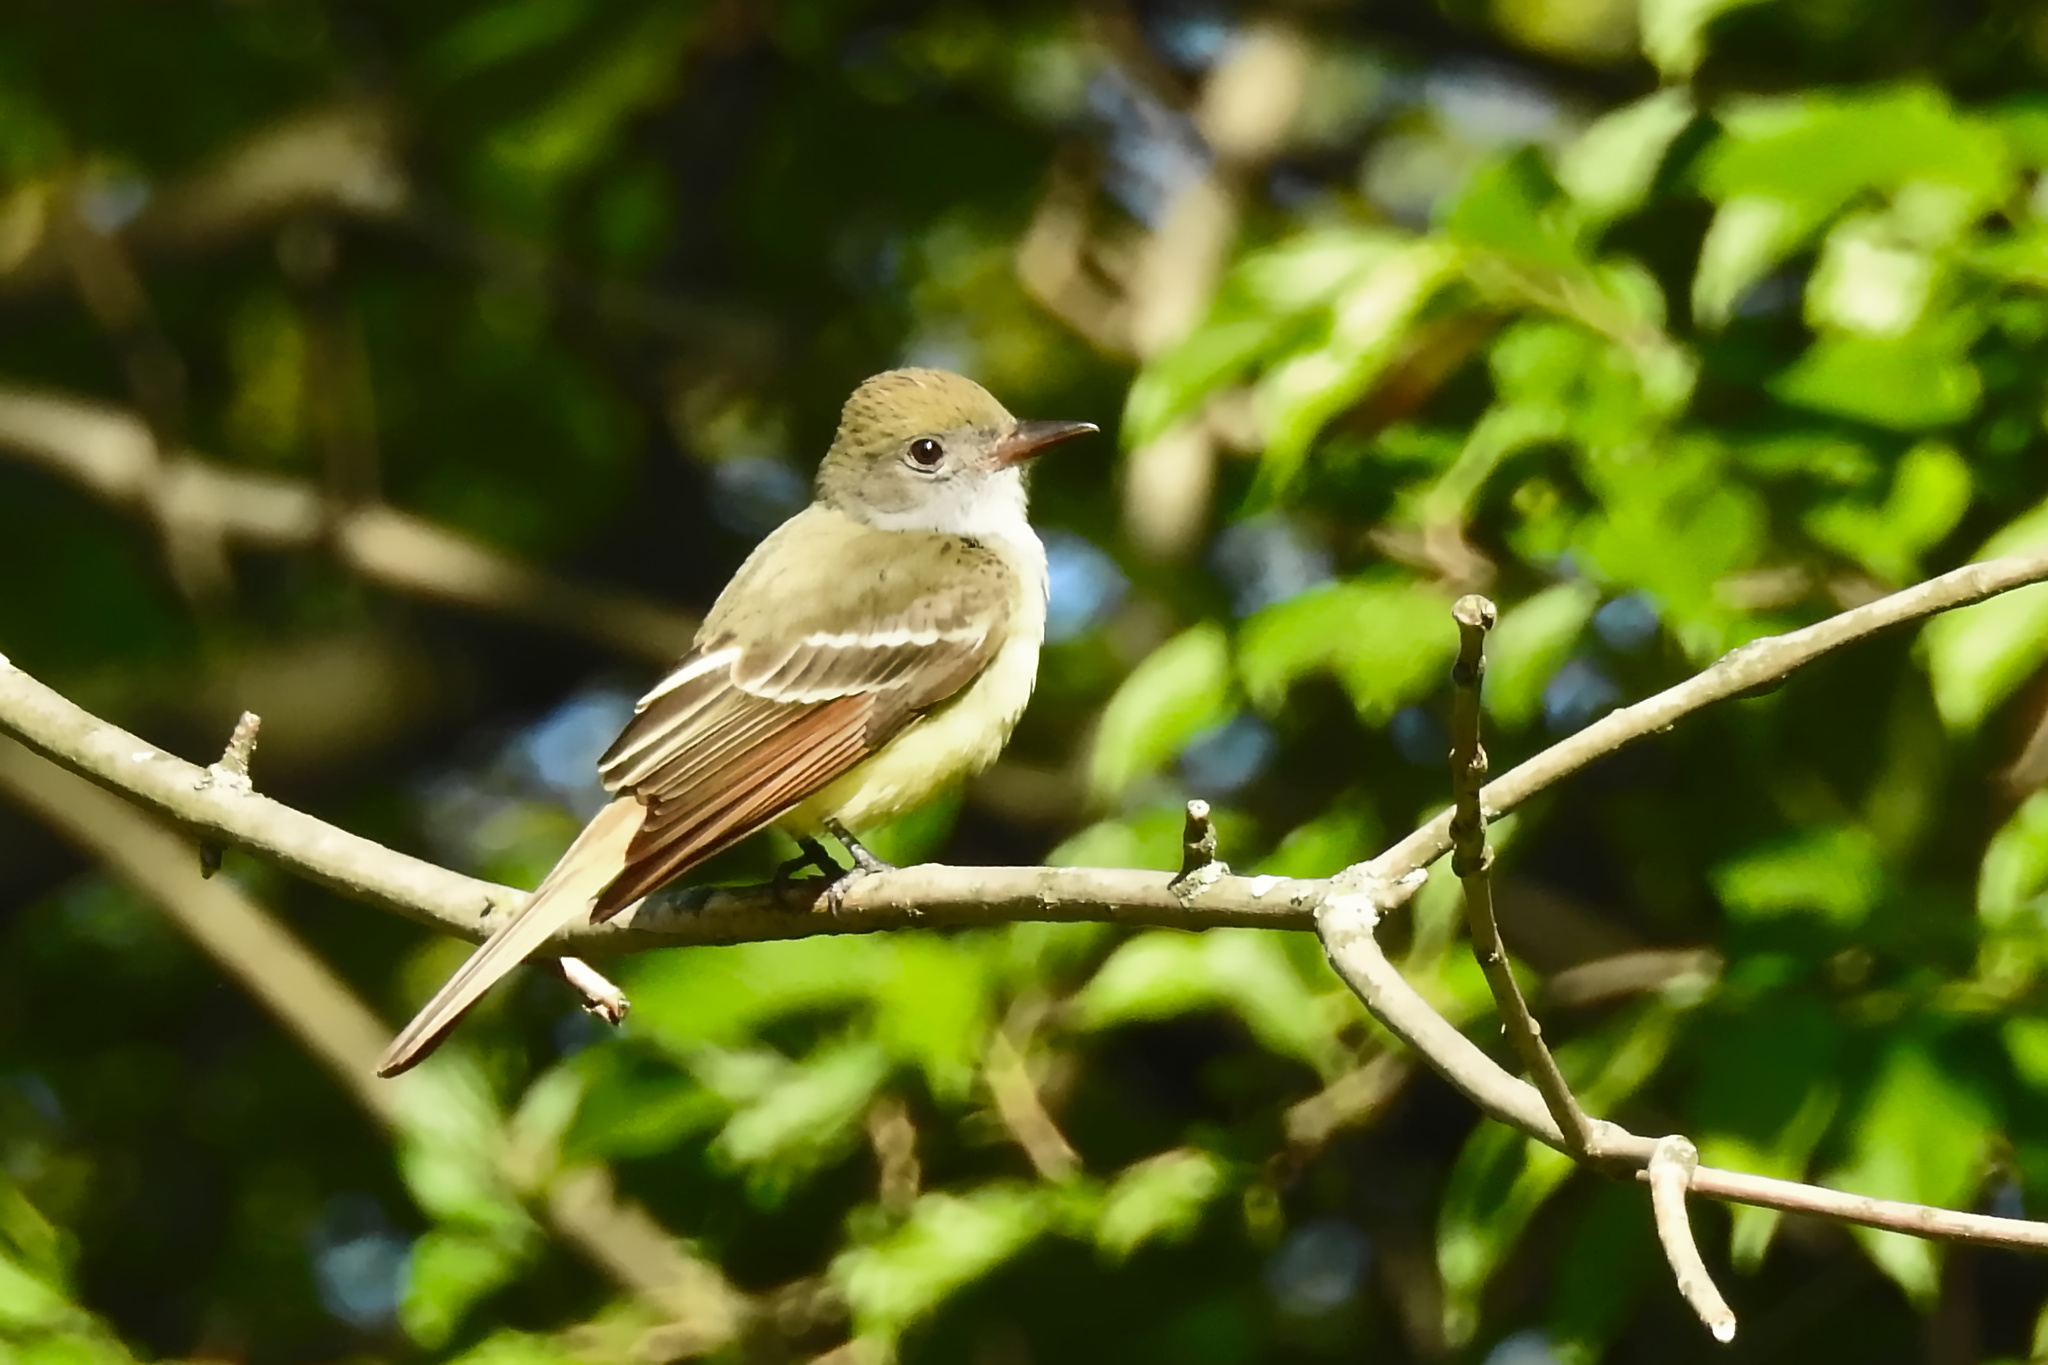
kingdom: Animalia
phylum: Chordata
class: Aves
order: Passeriformes
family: Tyrannidae
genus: Myiarchus
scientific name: Myiarchus crinitus
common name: Great crested flycatcher
